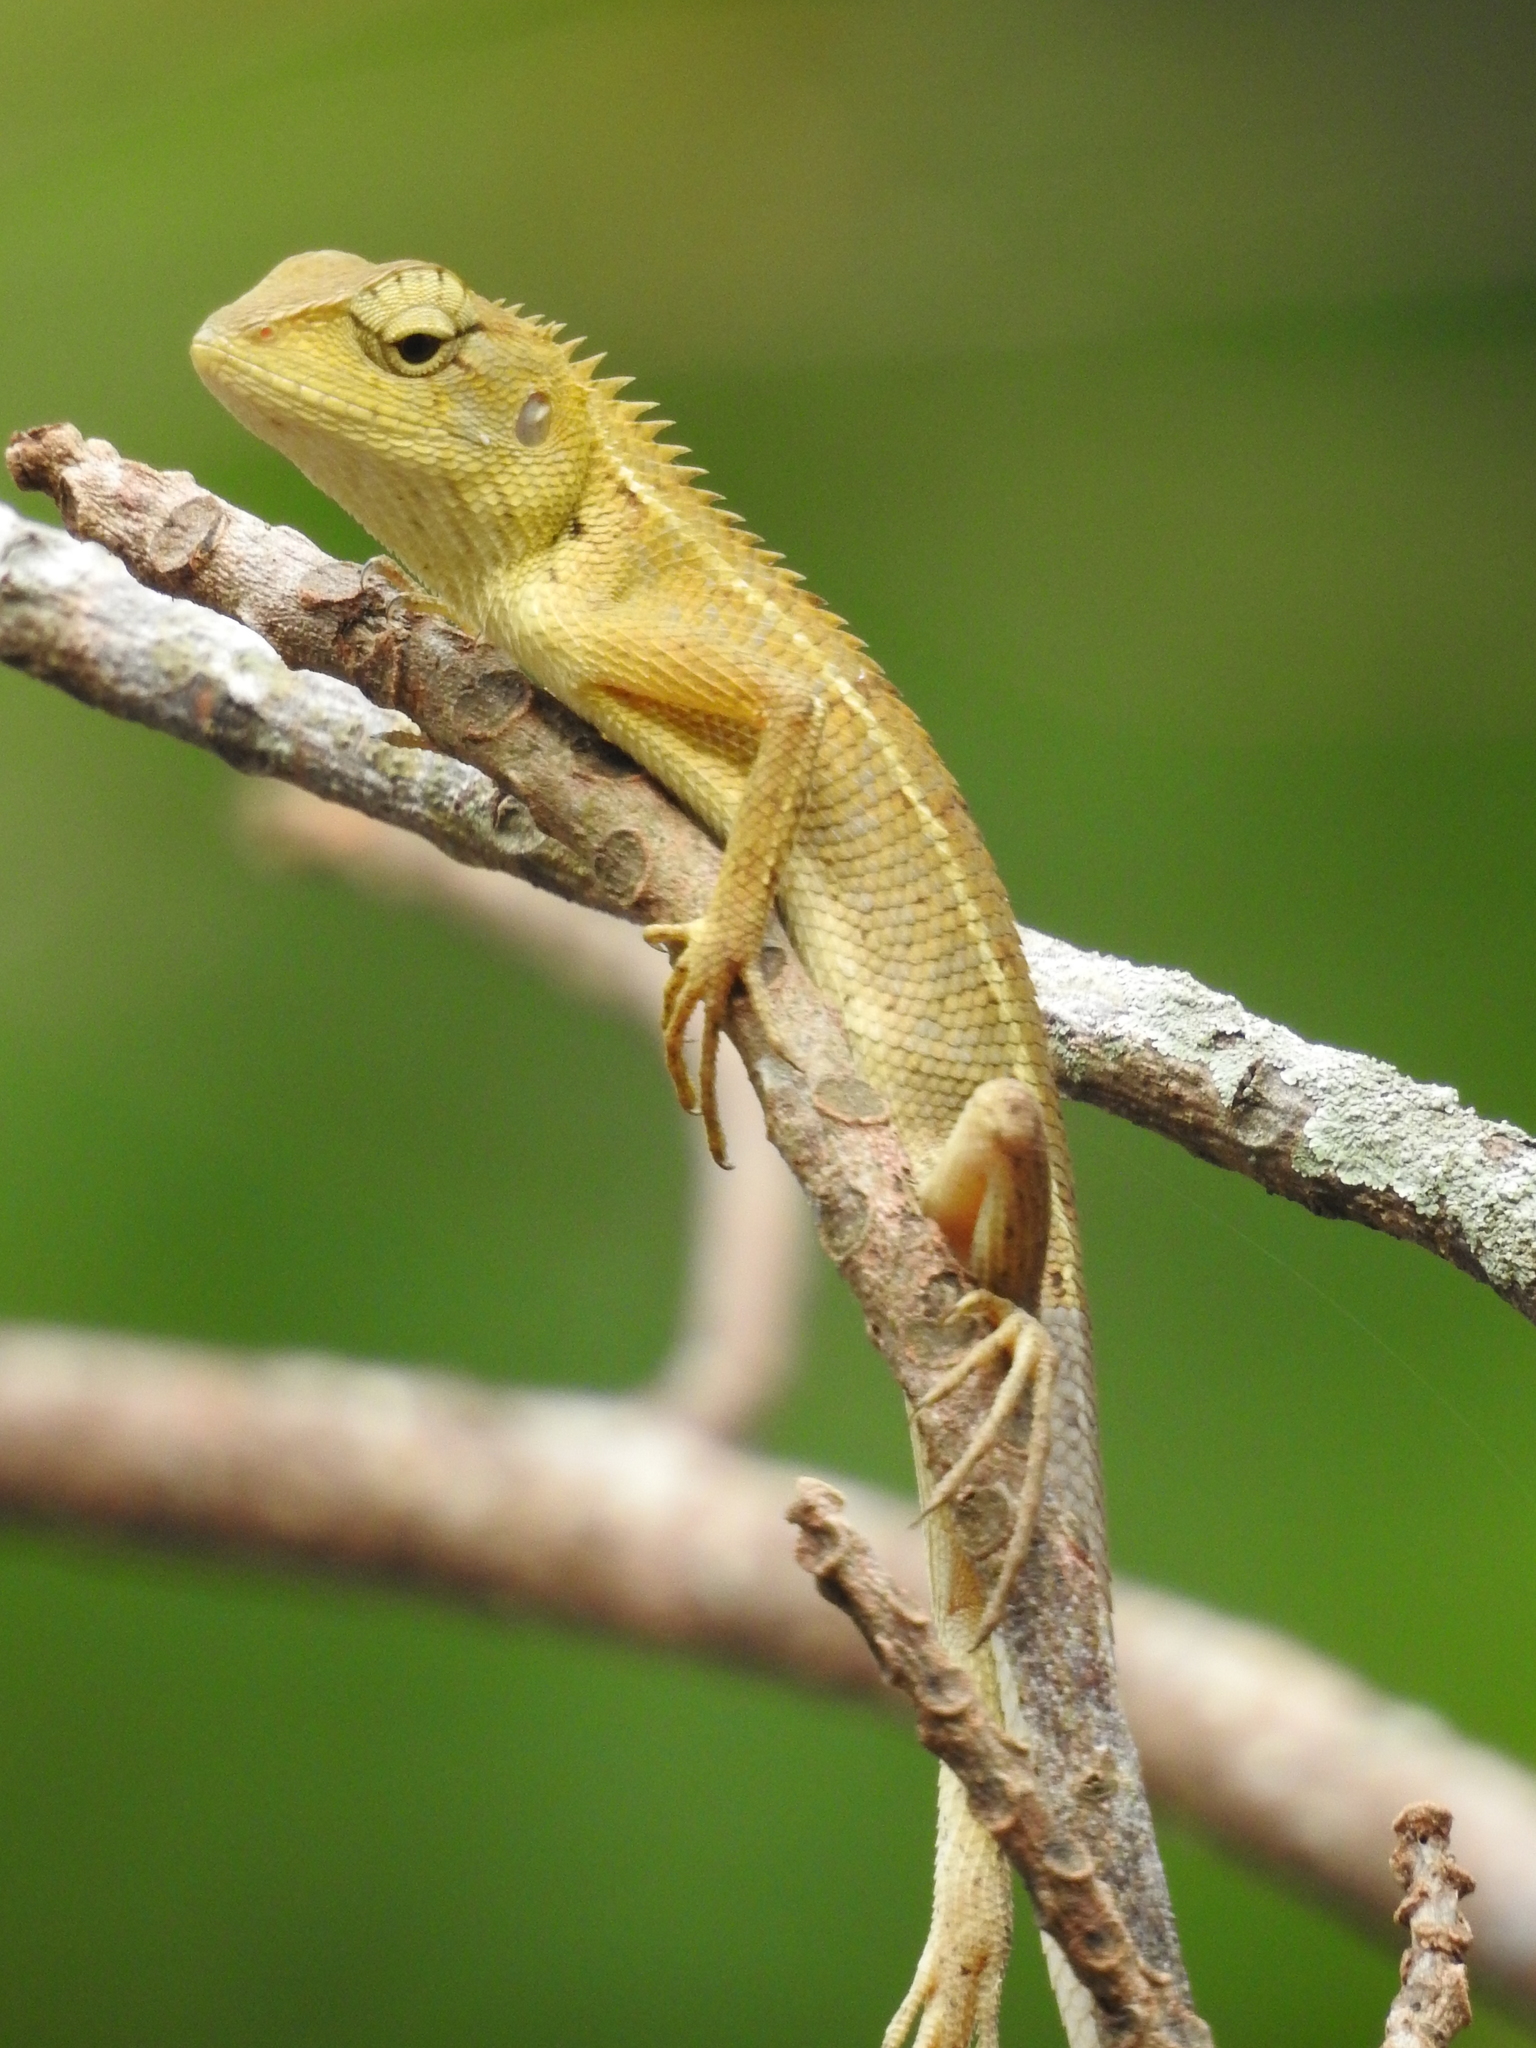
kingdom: Animalia
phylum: Chordata
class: Squamata
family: Agamidae
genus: Calotes
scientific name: Calotes versicolor
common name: Oriental garden lizard
